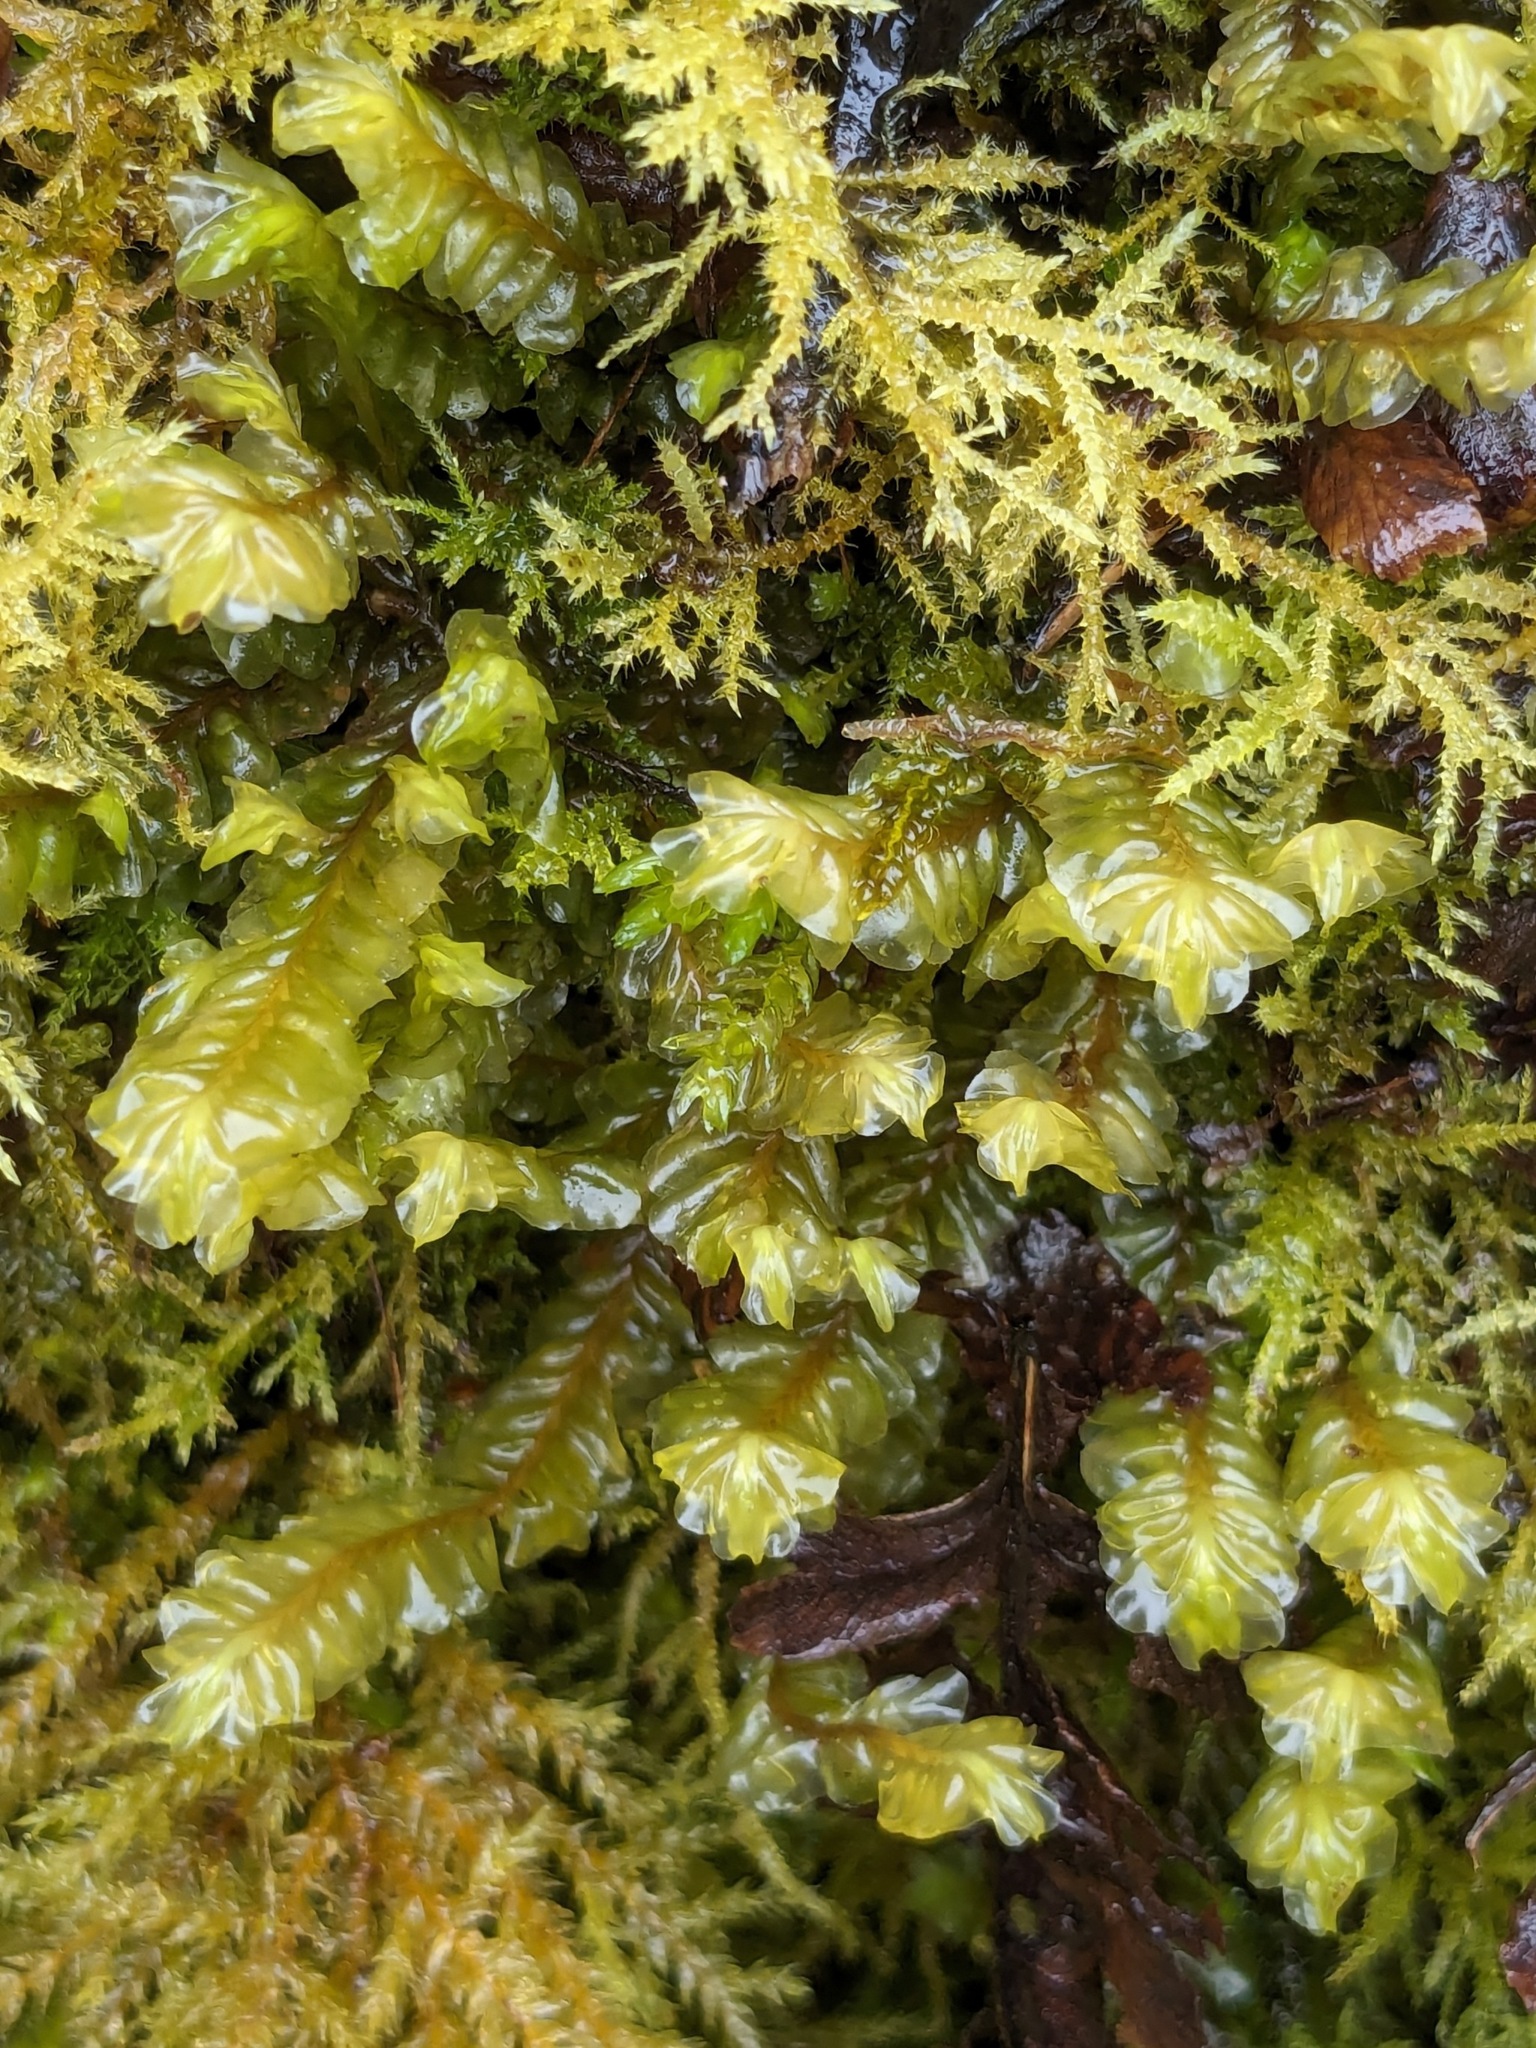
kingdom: Plantae
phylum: Marchantiophyta
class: Jungermanniopsida
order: Jungermanniales
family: Plagiochilaceae
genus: Plagiochila
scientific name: Plagiochila asplenioides
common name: Greater featherwort
